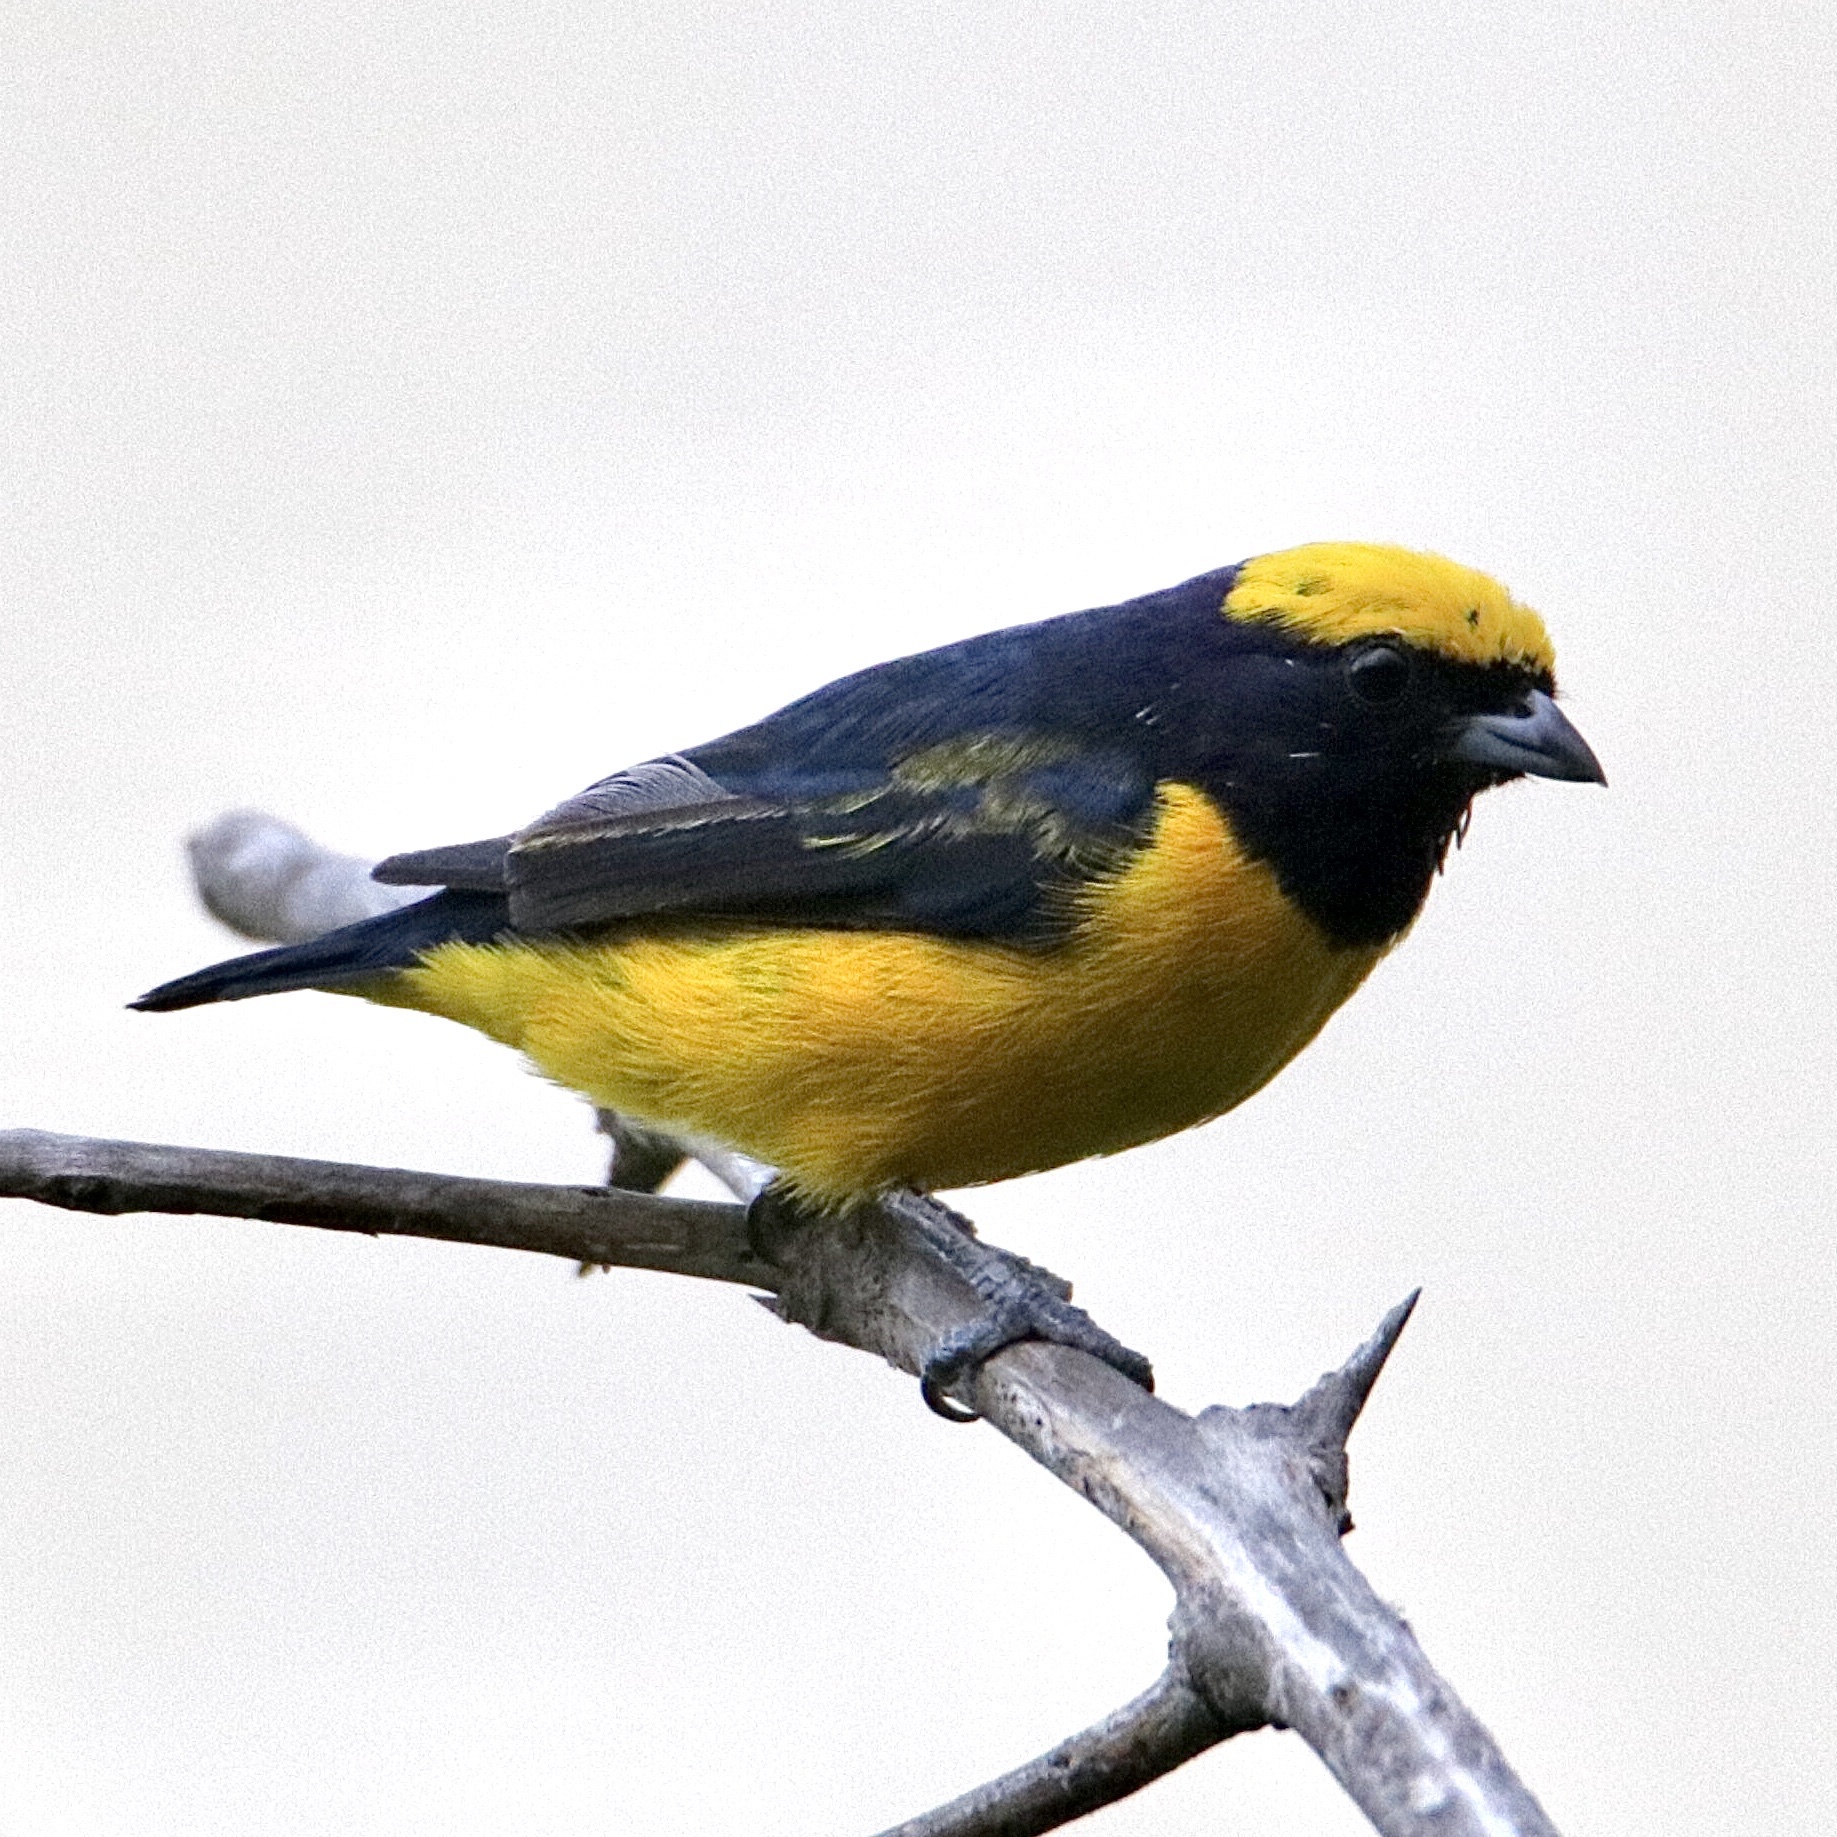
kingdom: Animalia
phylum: Chordata
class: Aves
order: Passeriformes
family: Fringillidae
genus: Euphonia
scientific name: Euphonia luteicapilla
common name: Yellow-crowned euphonia
